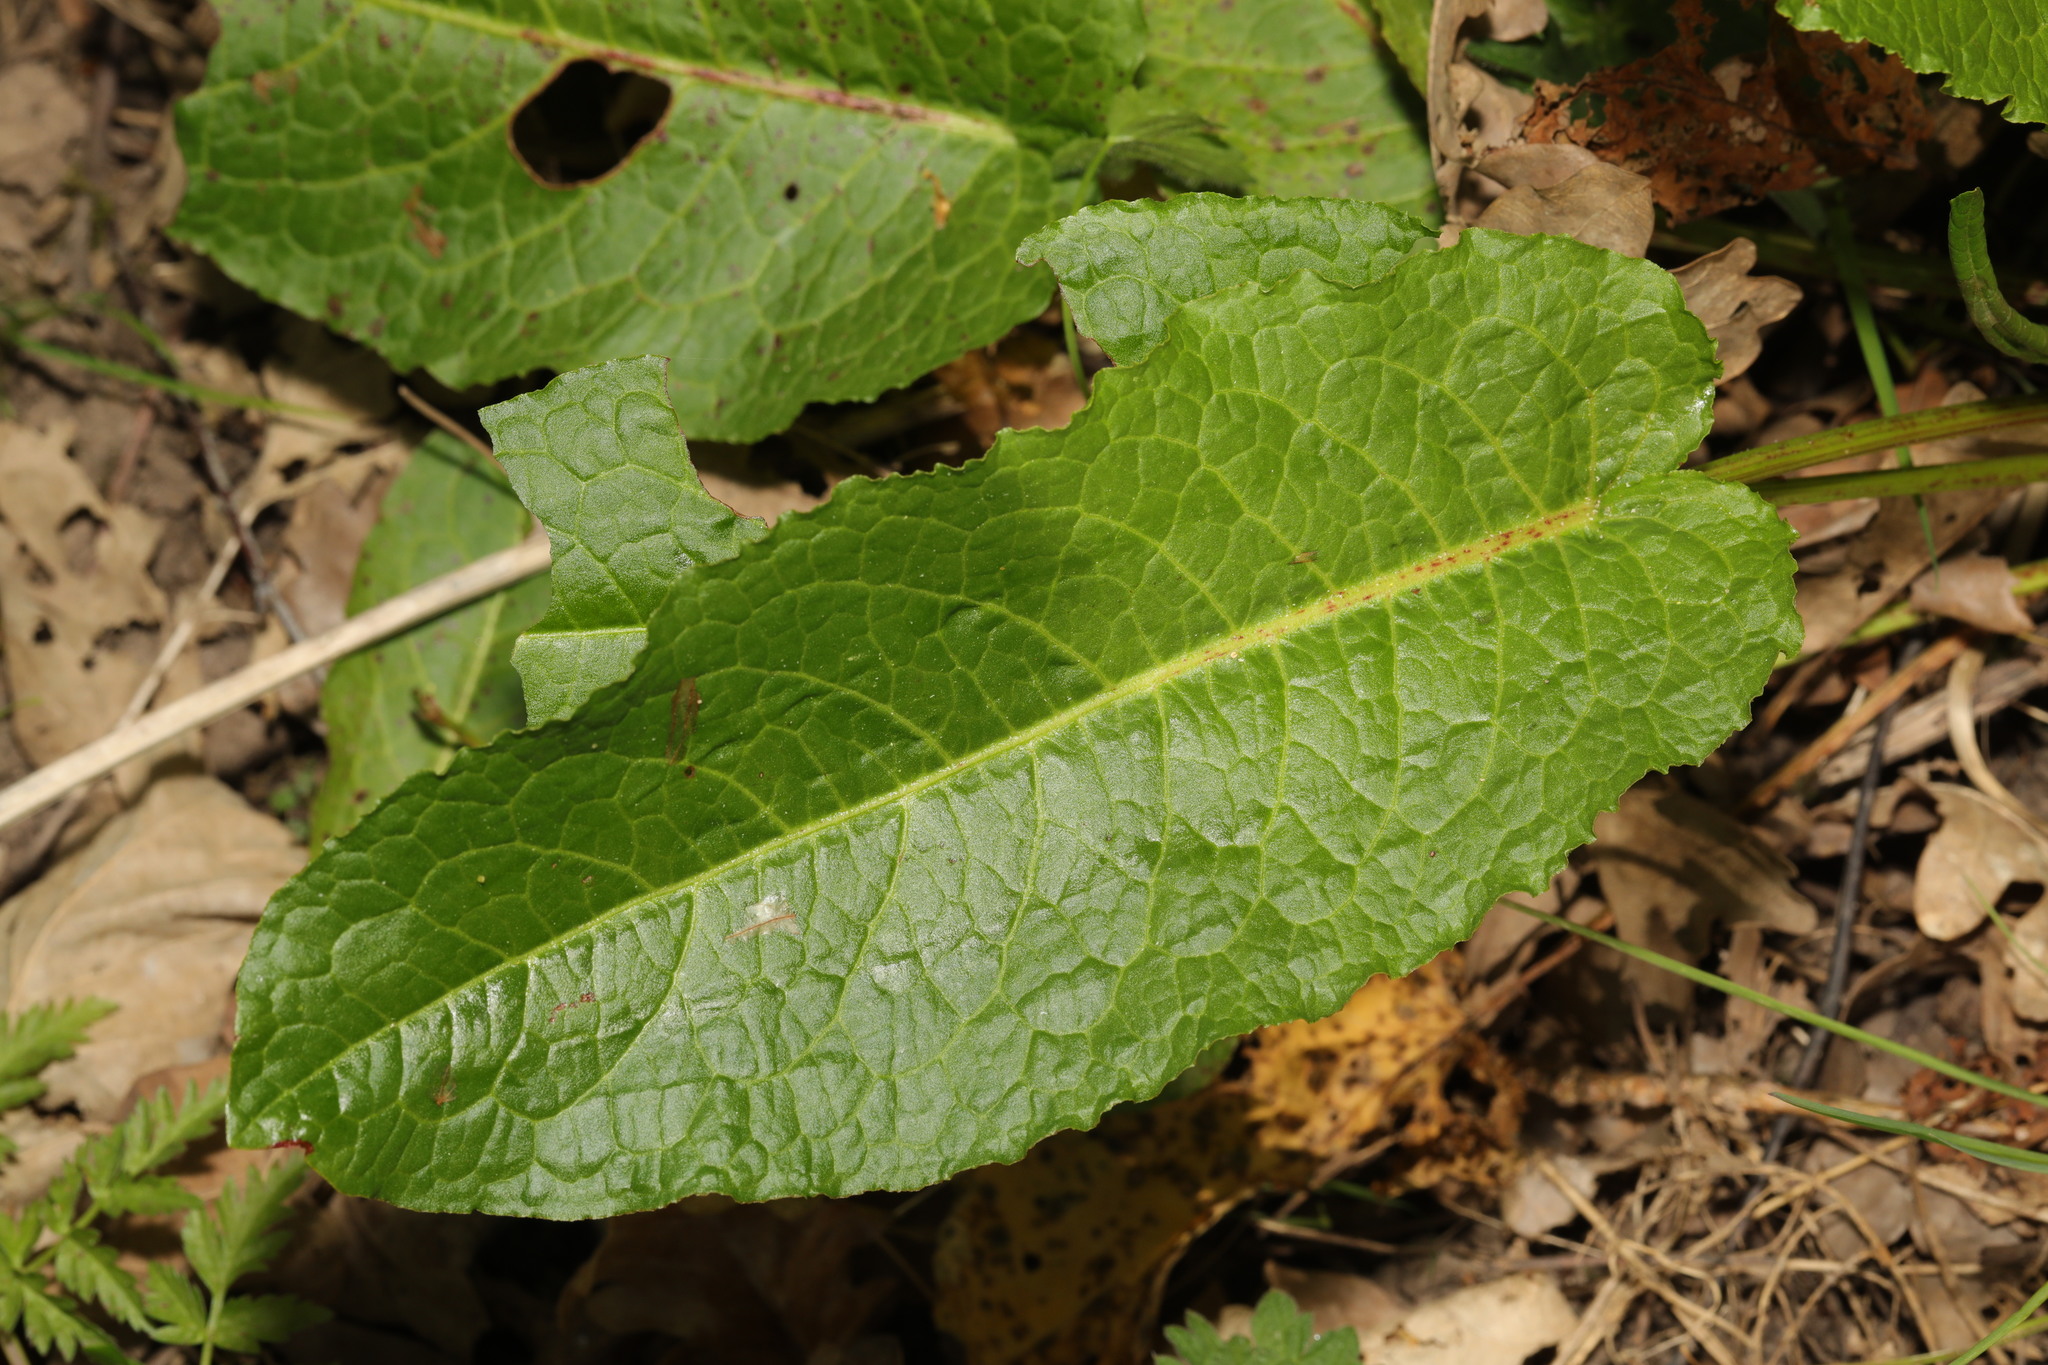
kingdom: Plantae
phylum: Tracheophyta
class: Magnoliopsida
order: Caryophyllales
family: Polygonaceae
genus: Rumex
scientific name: Rumex obtusifolius
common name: Bitter dock
